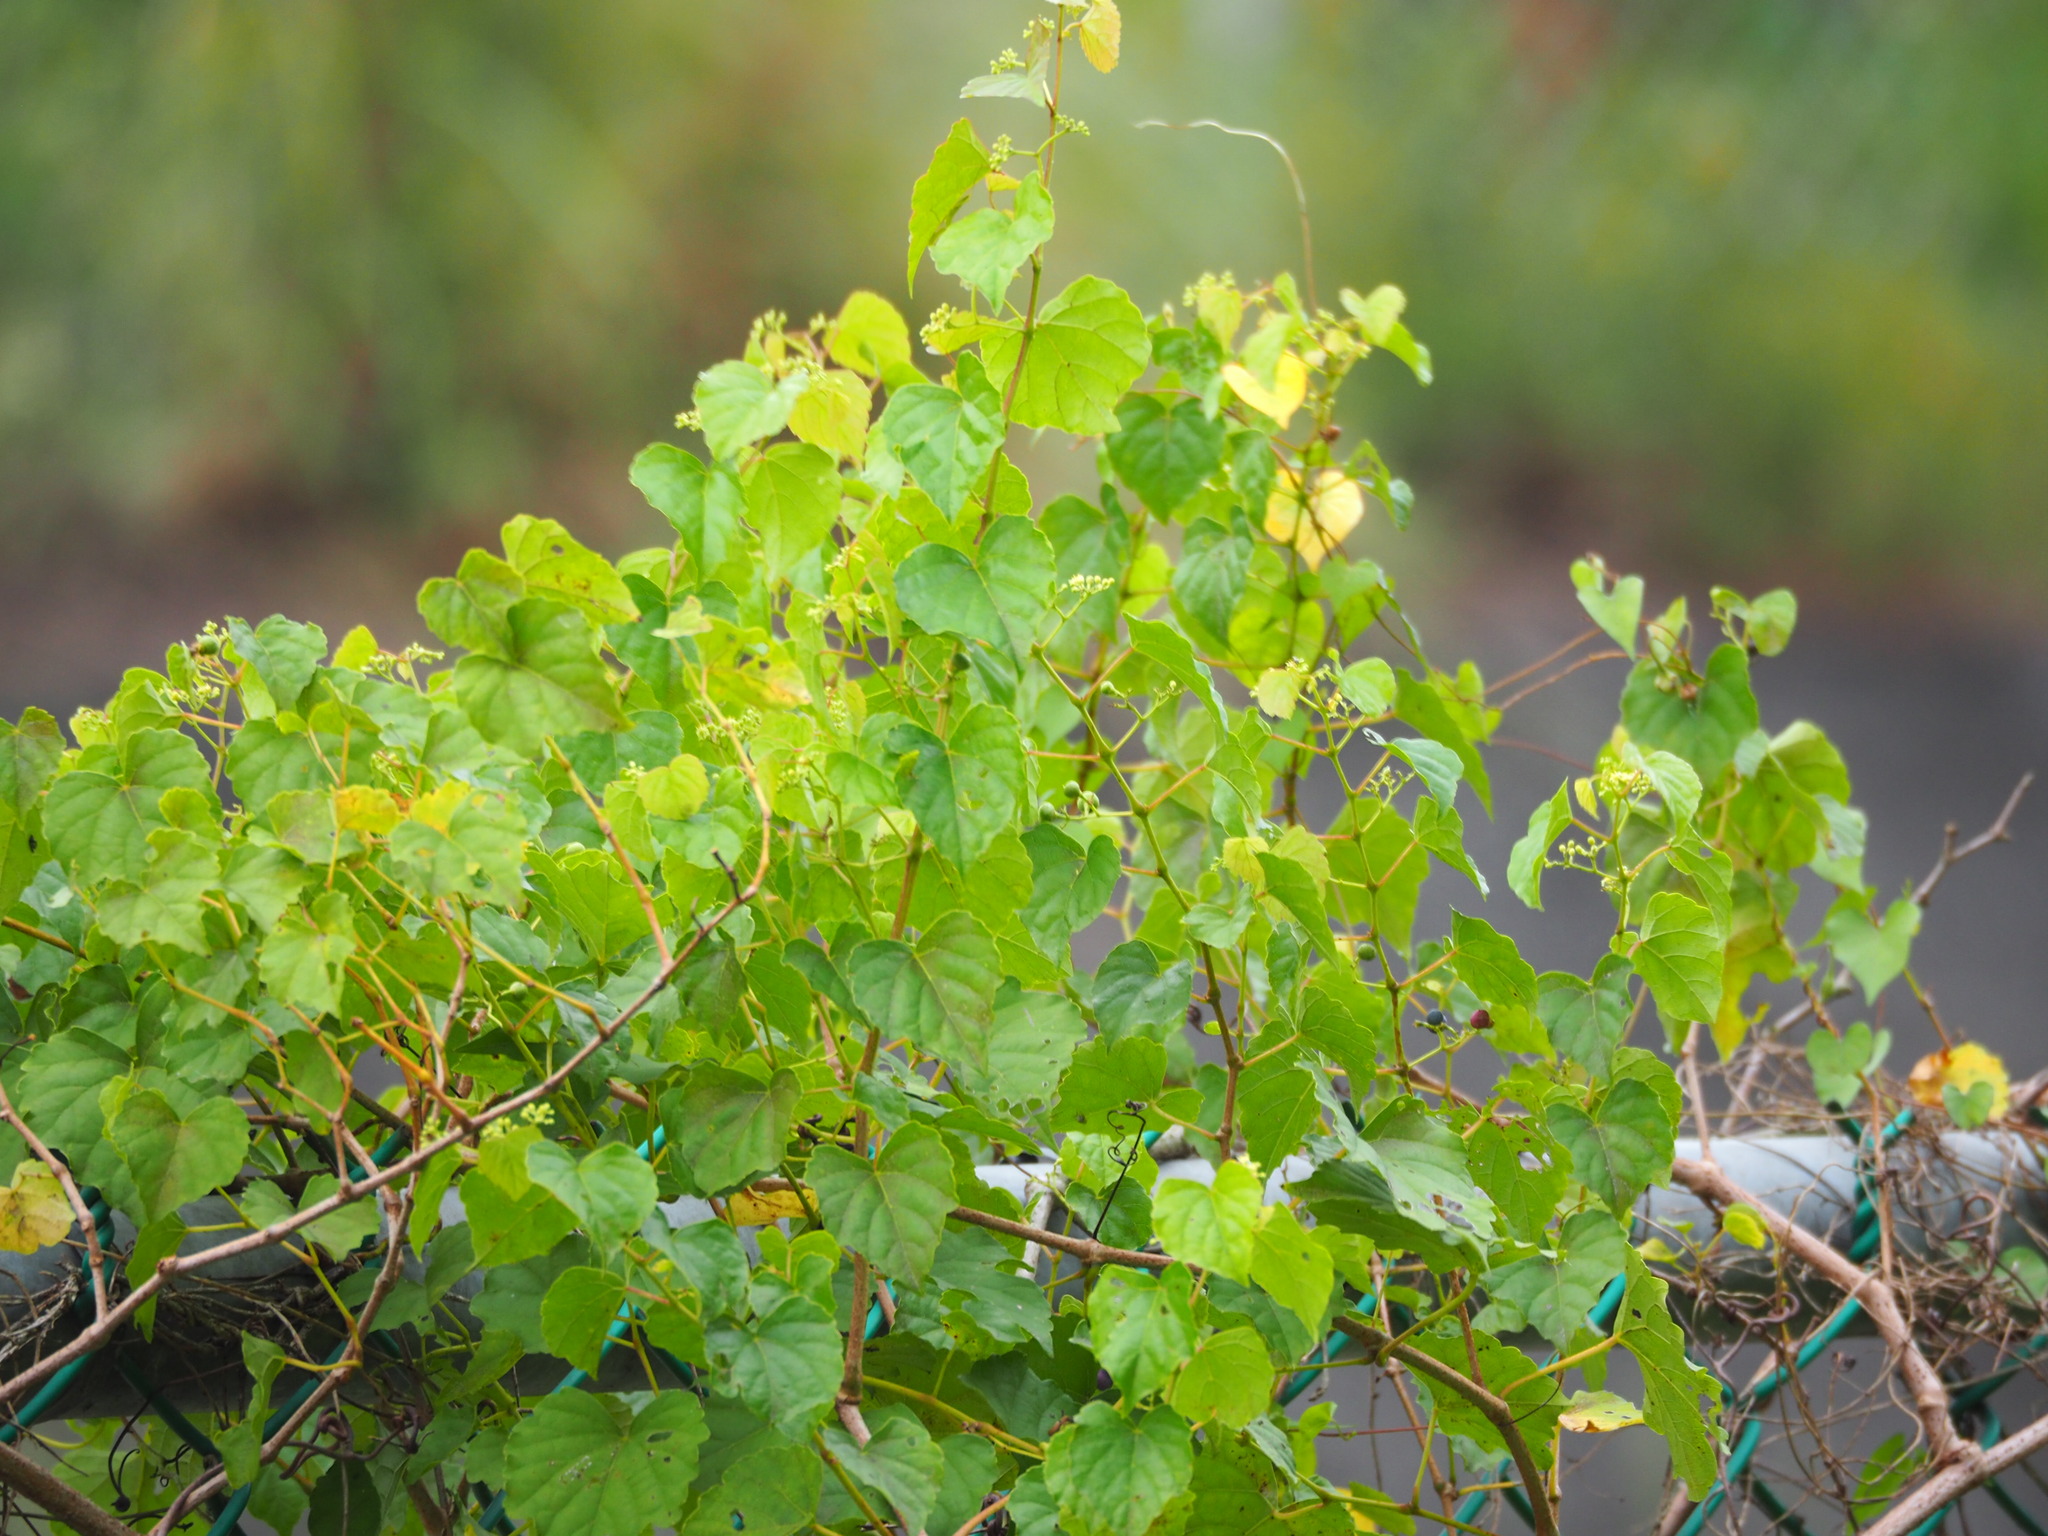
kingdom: Plantae
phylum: Tracheophyta
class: Magnoliopsida
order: Vitales
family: Vitaceae
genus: Ampelopsis
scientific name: Ampelopsis glandulosa
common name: Amur peppervine
